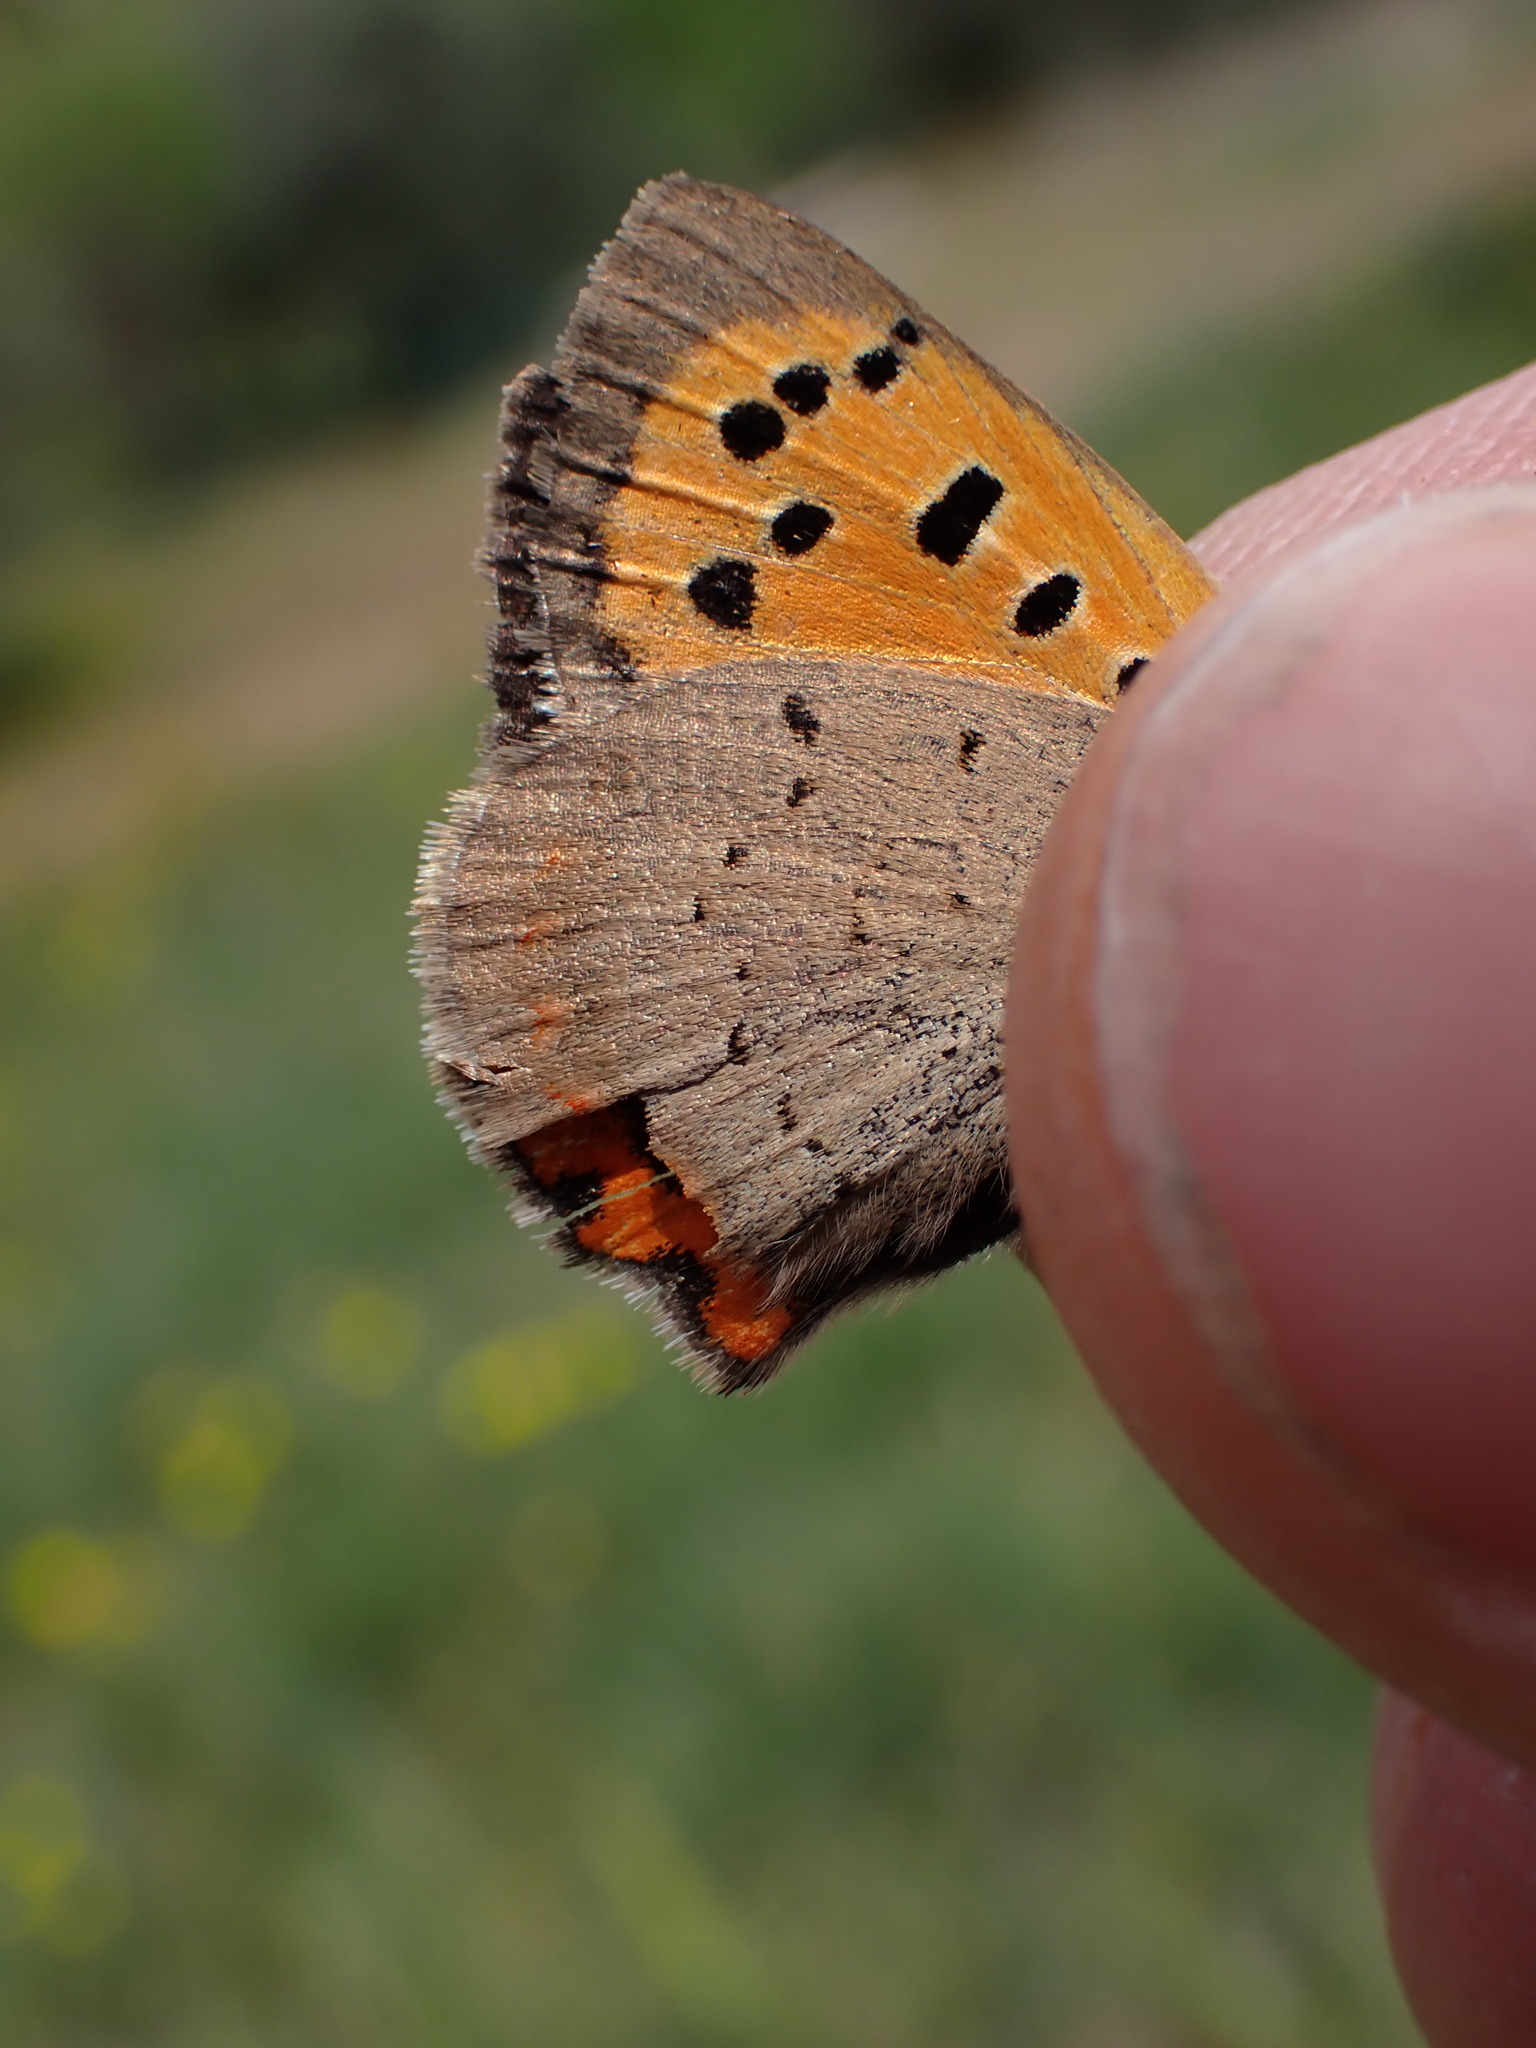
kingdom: Animalia
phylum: Arthropoda
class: Insecta
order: Lepidoptera
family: Lycaenidae
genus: Lycaena
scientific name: Lycaena phlaeas
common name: Small copper
